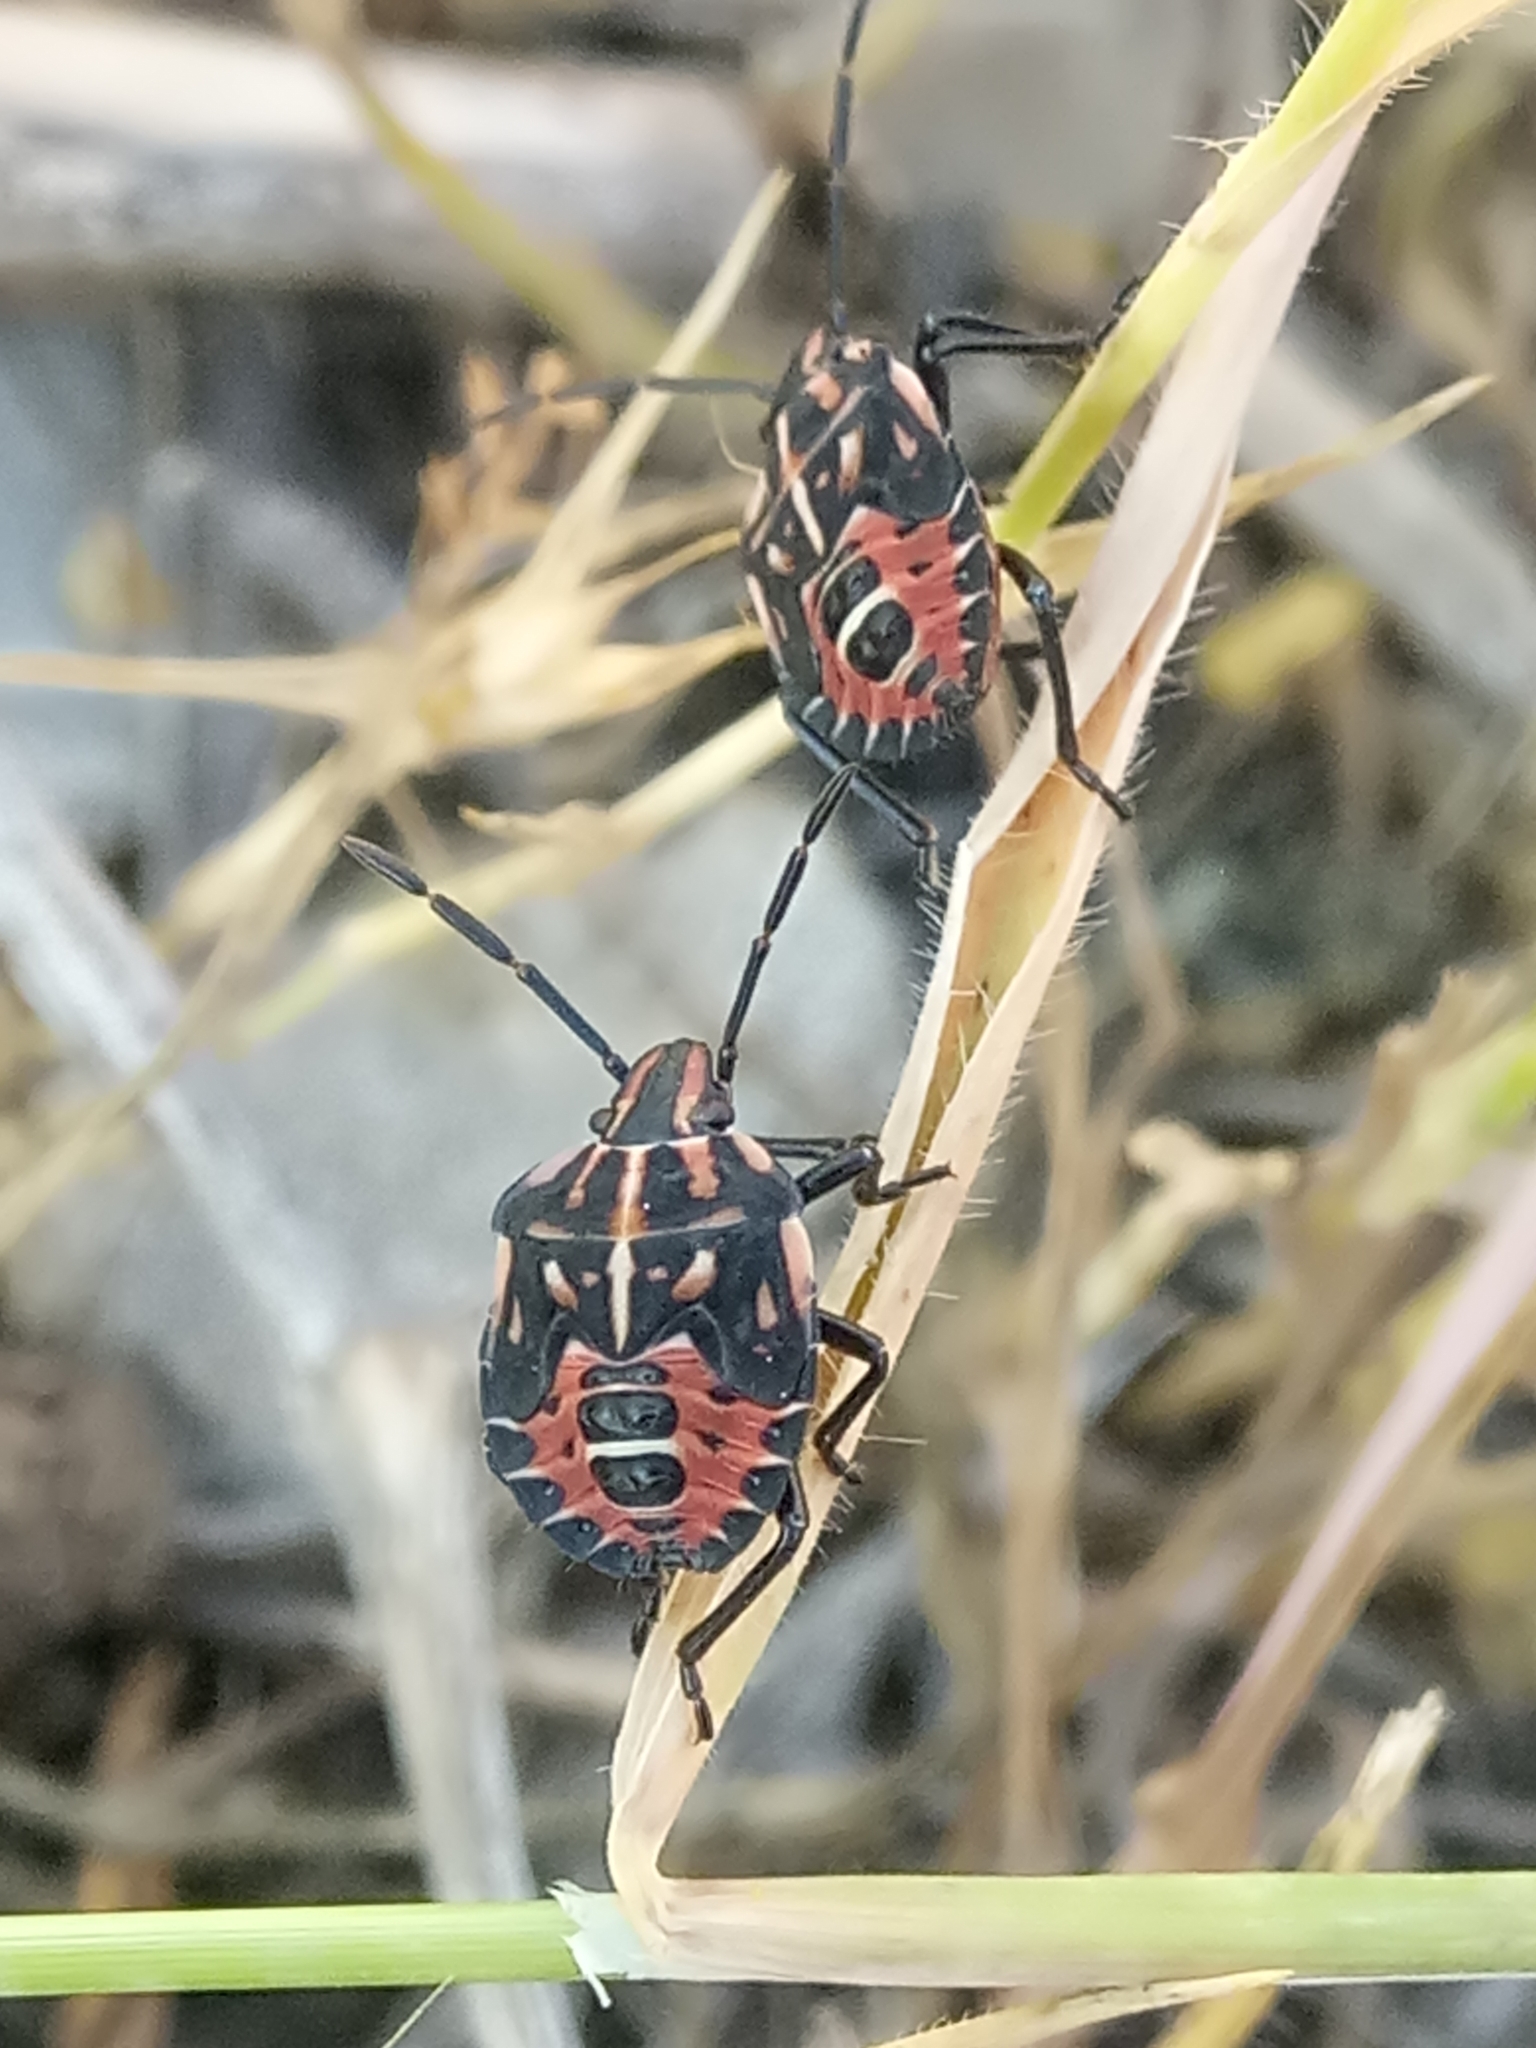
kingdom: Animalia
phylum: Arthropoda
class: Insecta
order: Hemiptera
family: Miridae
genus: Orthops
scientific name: Orthops kalmii
